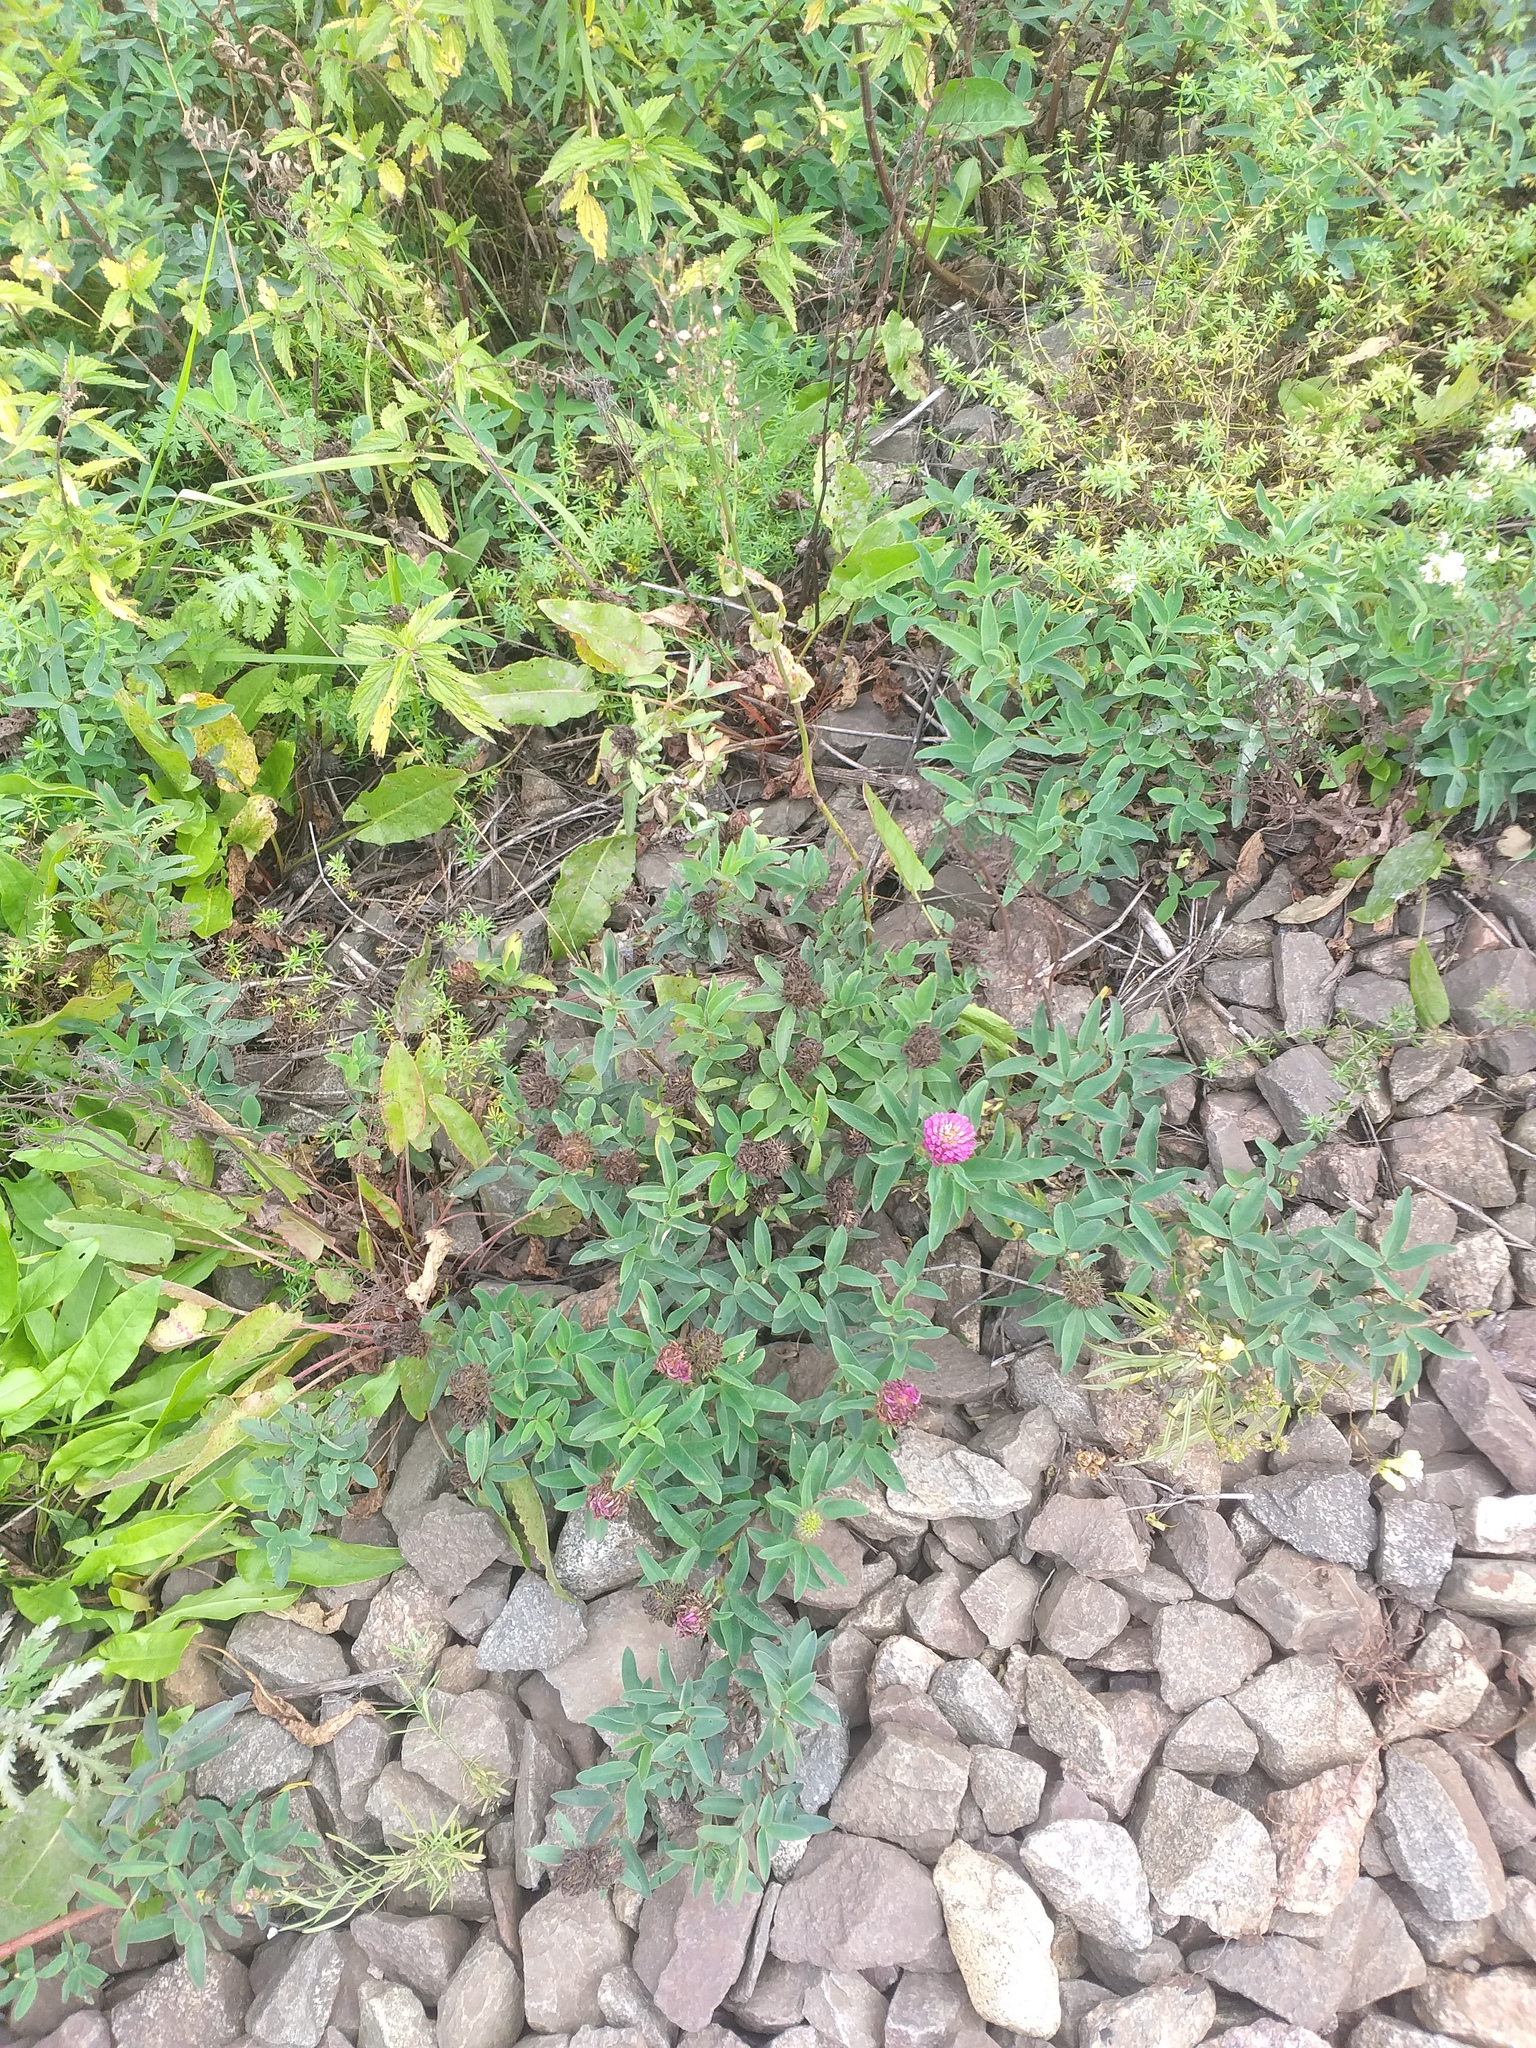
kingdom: Plantae
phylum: Tracheophyta
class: Magnoliopsida
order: Fabales
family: Fabaceae
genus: Trifolium
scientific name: Trifolium medium
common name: Zigzag clover
